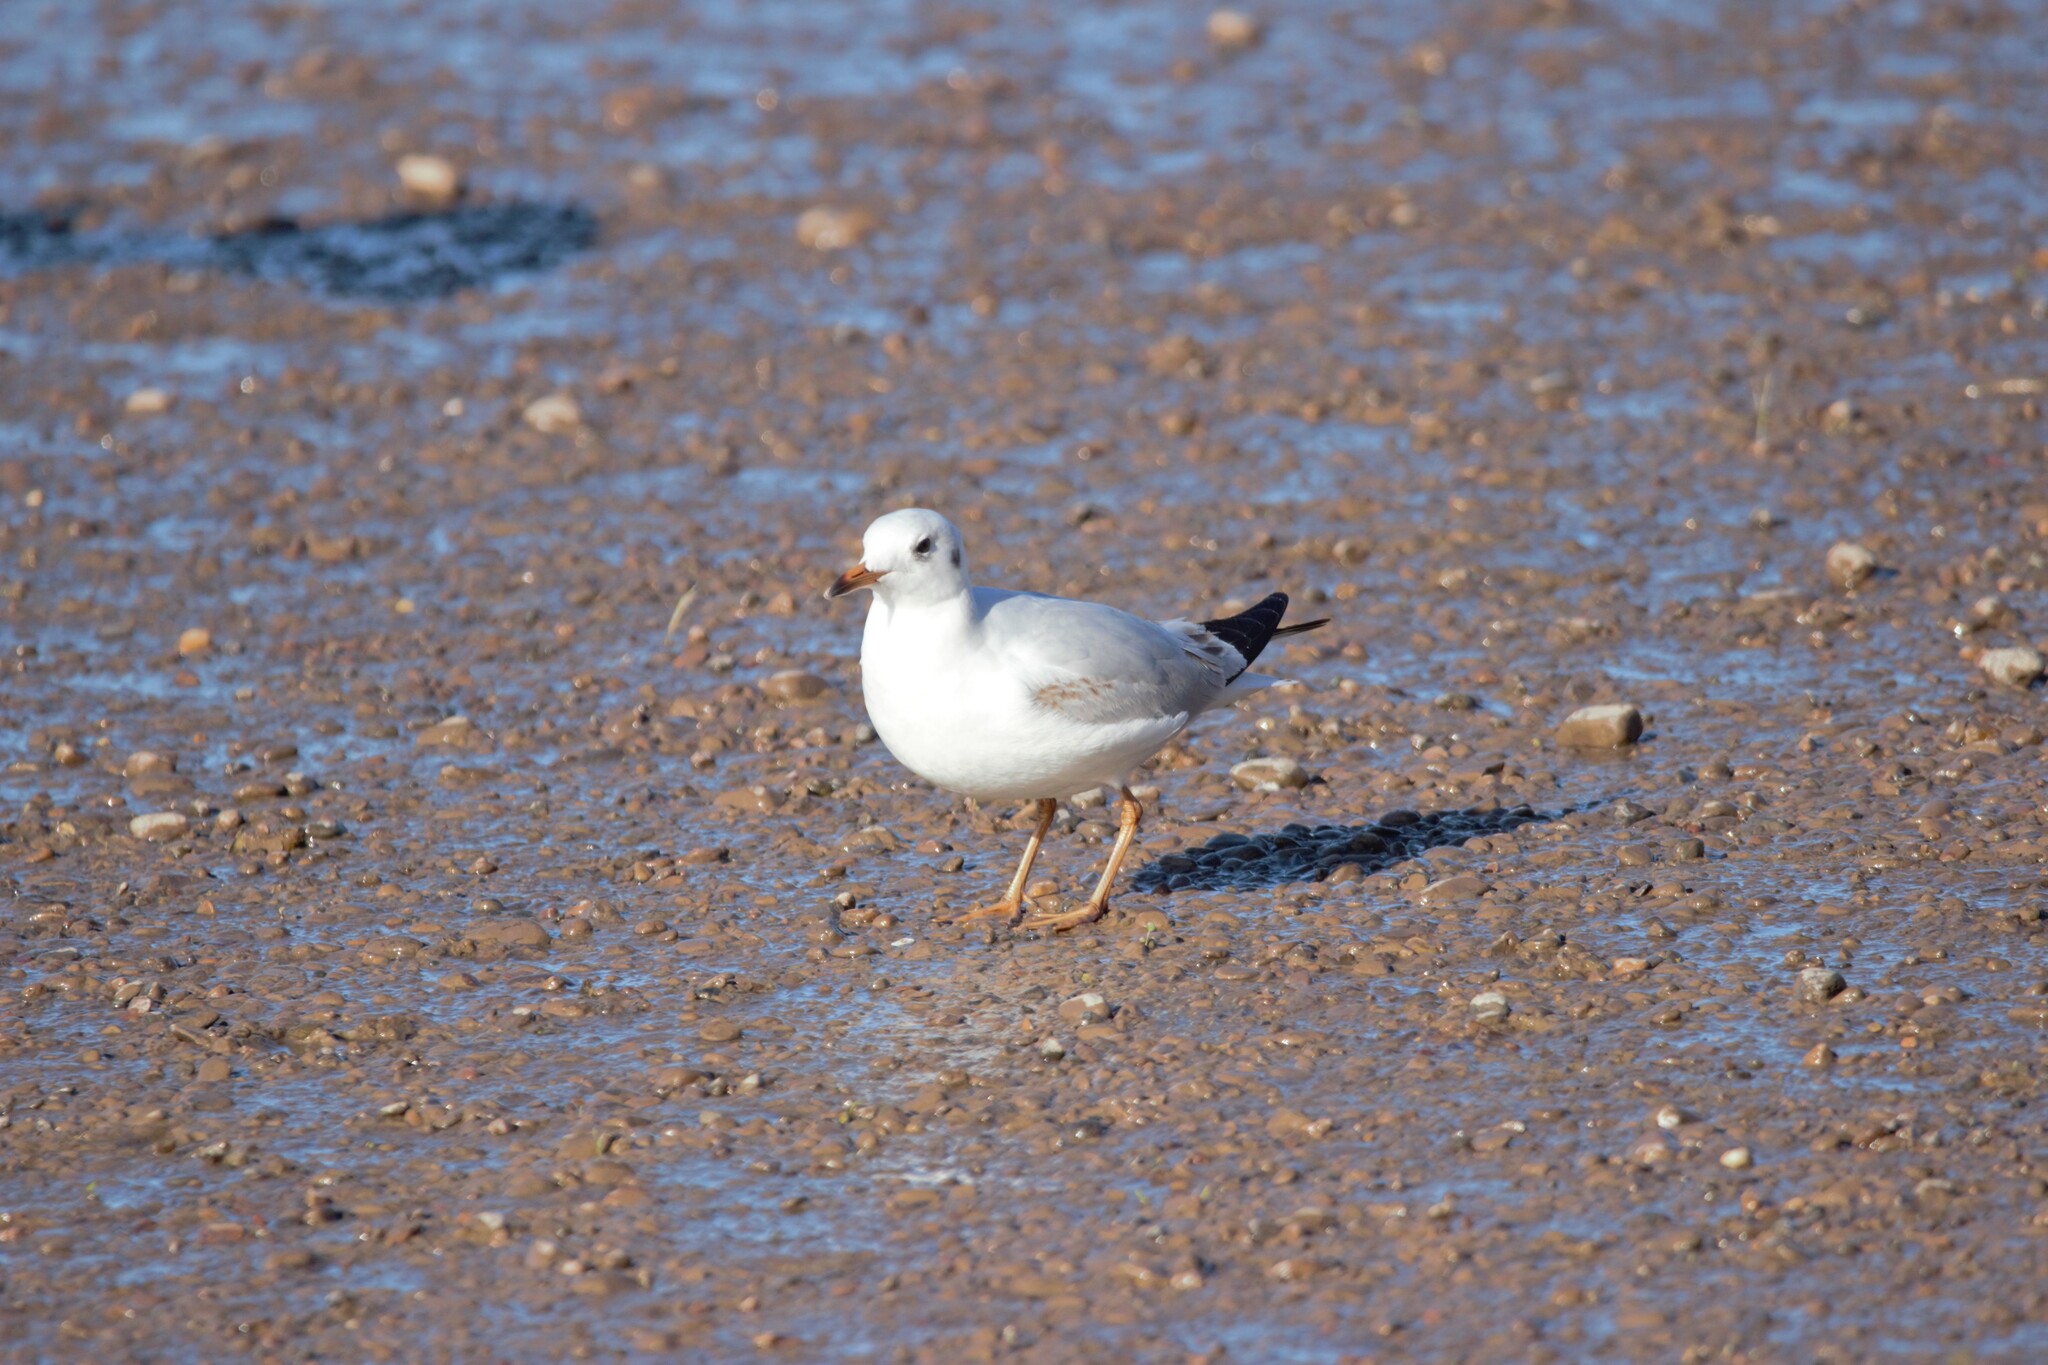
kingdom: Animalia
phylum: Chordata
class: Aves
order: Charadriiformes
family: Laridae
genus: Chroicocephalus
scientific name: Chroicocephalus maculipennis
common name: Brown-hooded gull
